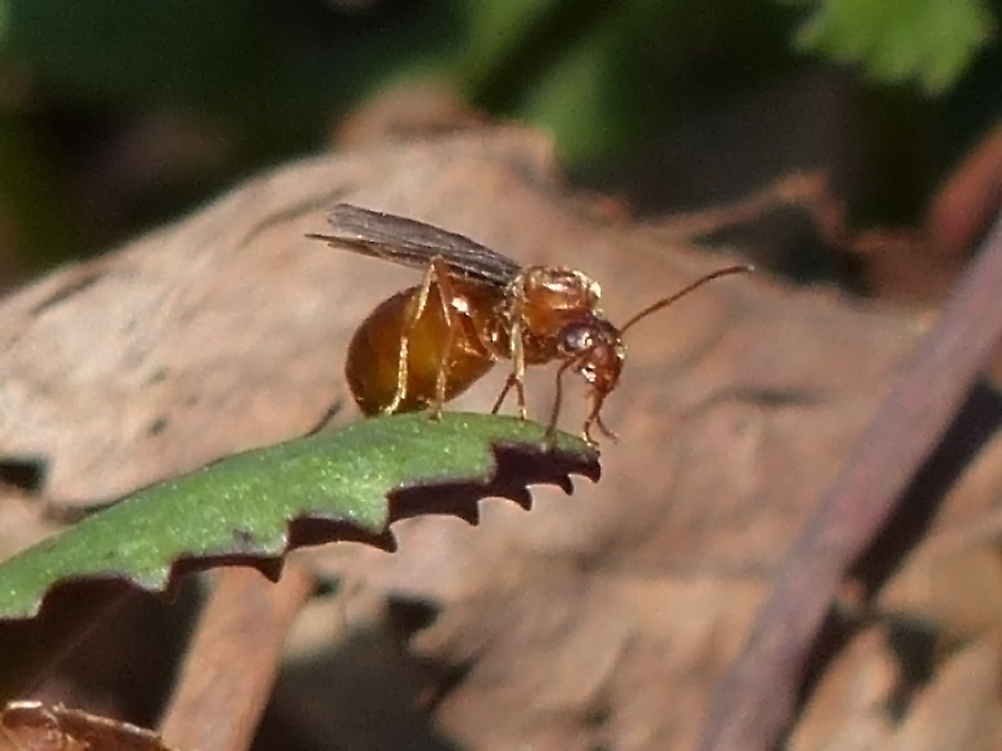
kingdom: Animalia
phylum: Arthropoda
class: Insecta
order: Hymenoptera
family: Formicidae
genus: Prenolepis
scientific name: Prenolepis imparis
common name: Small honey ant
